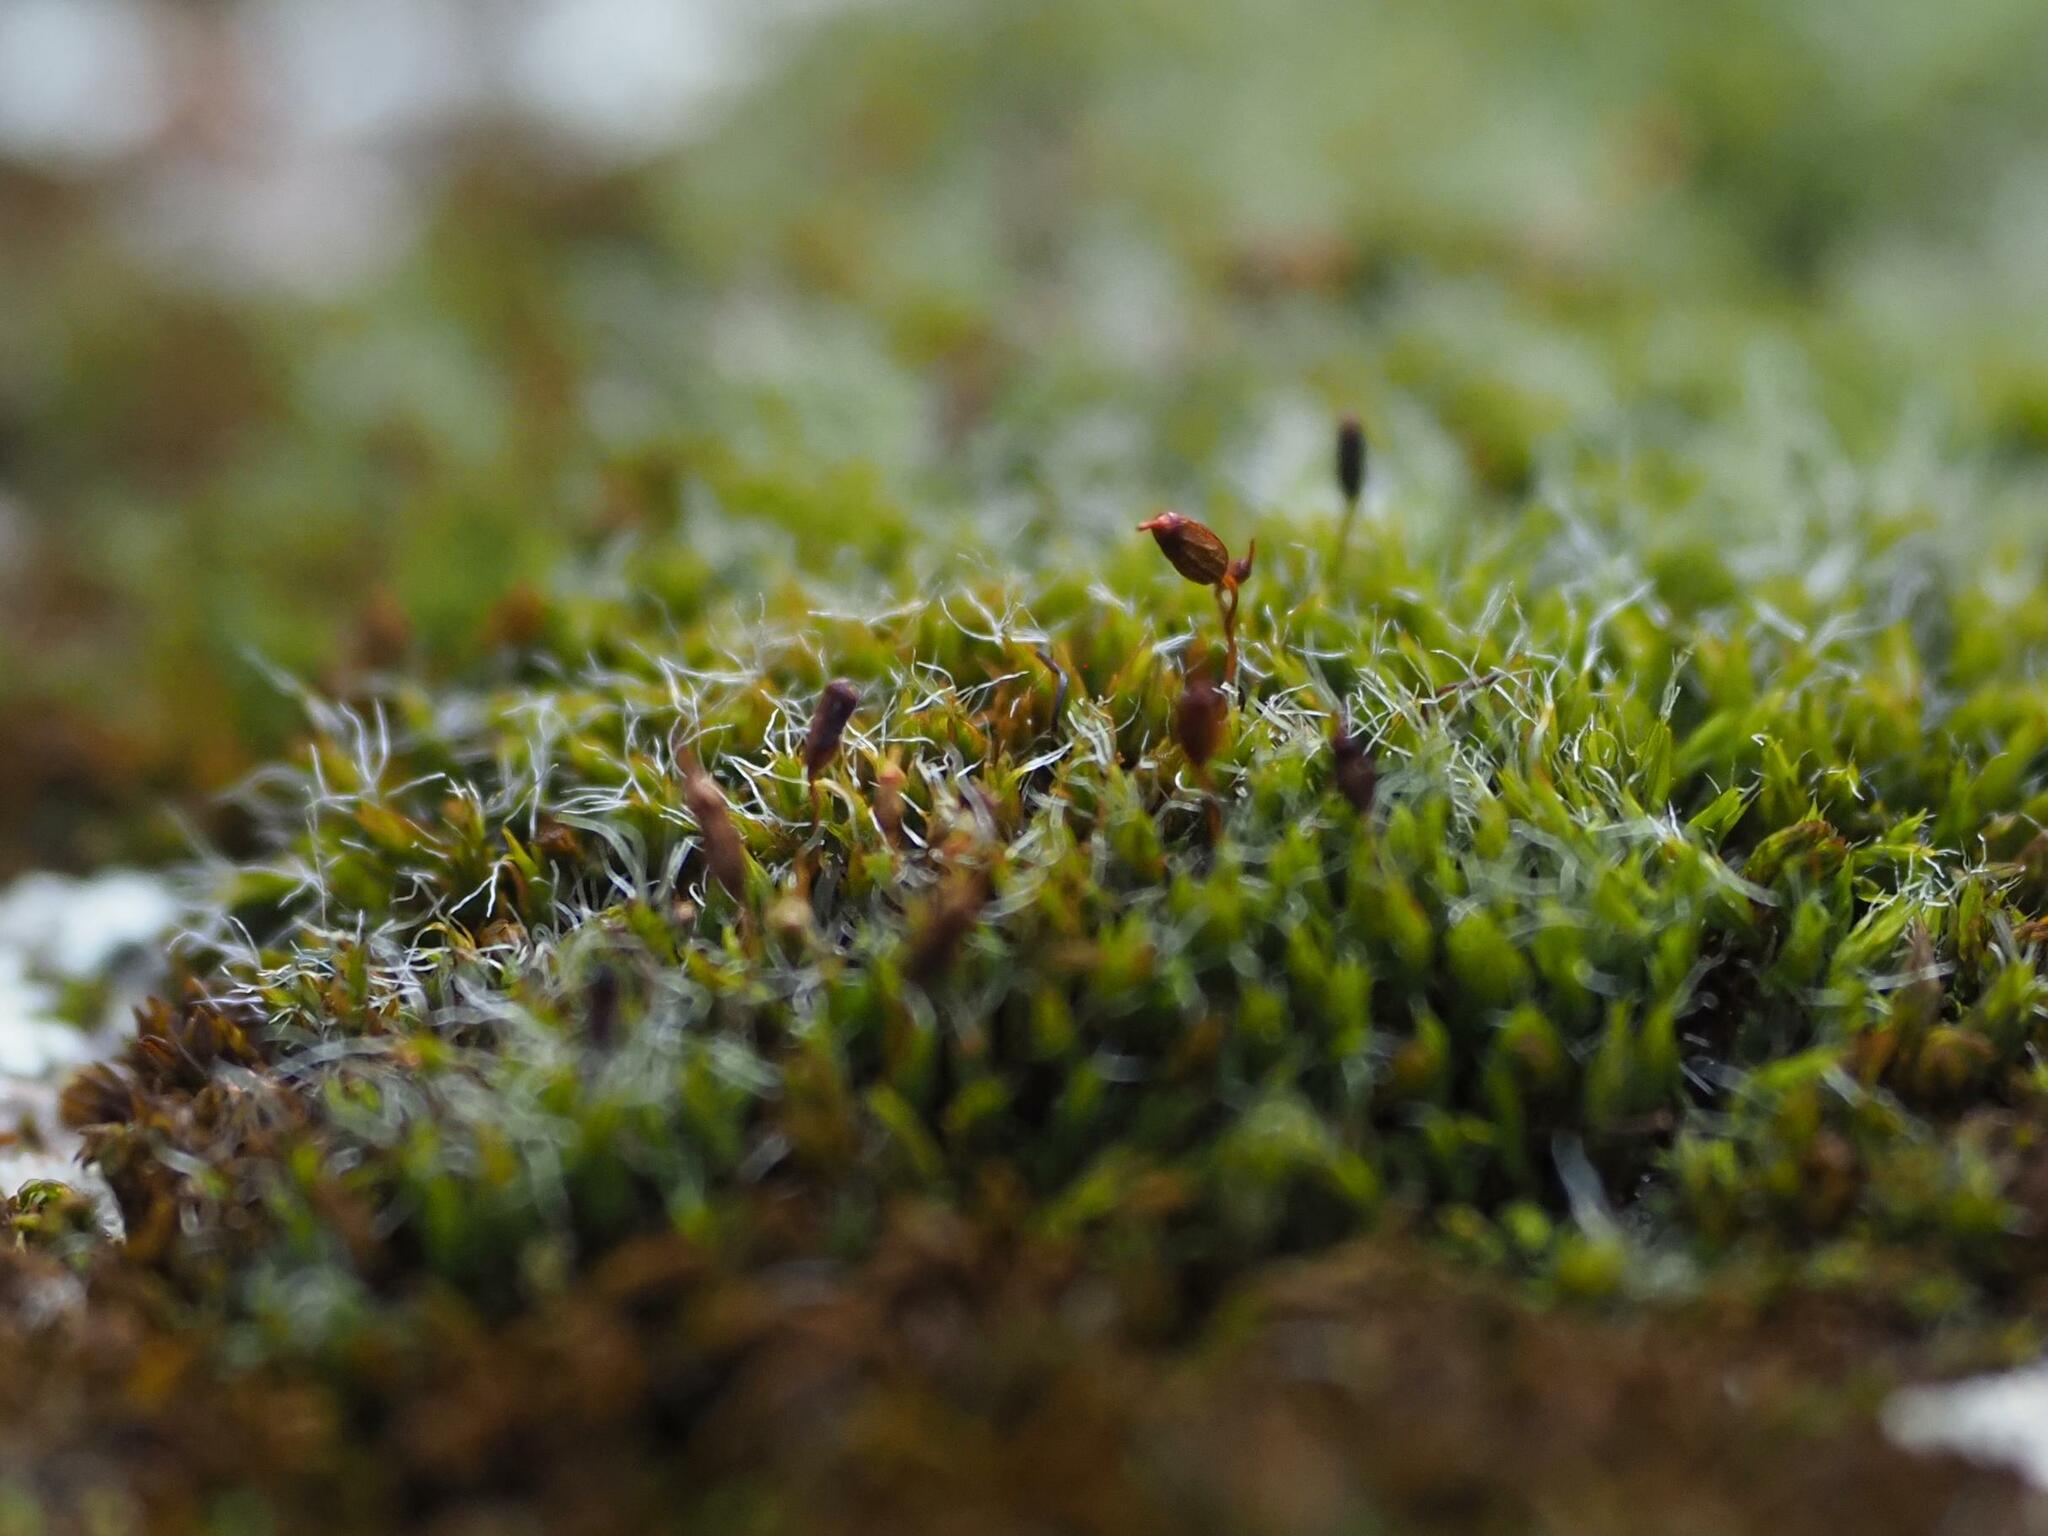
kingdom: Plantae
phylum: Bryophyta
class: Bryopsida
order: Grimmiales
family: Grimmiaceae
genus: Grimmia
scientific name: Grimmia pulvinata
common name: Grey-cushioned grimmia
